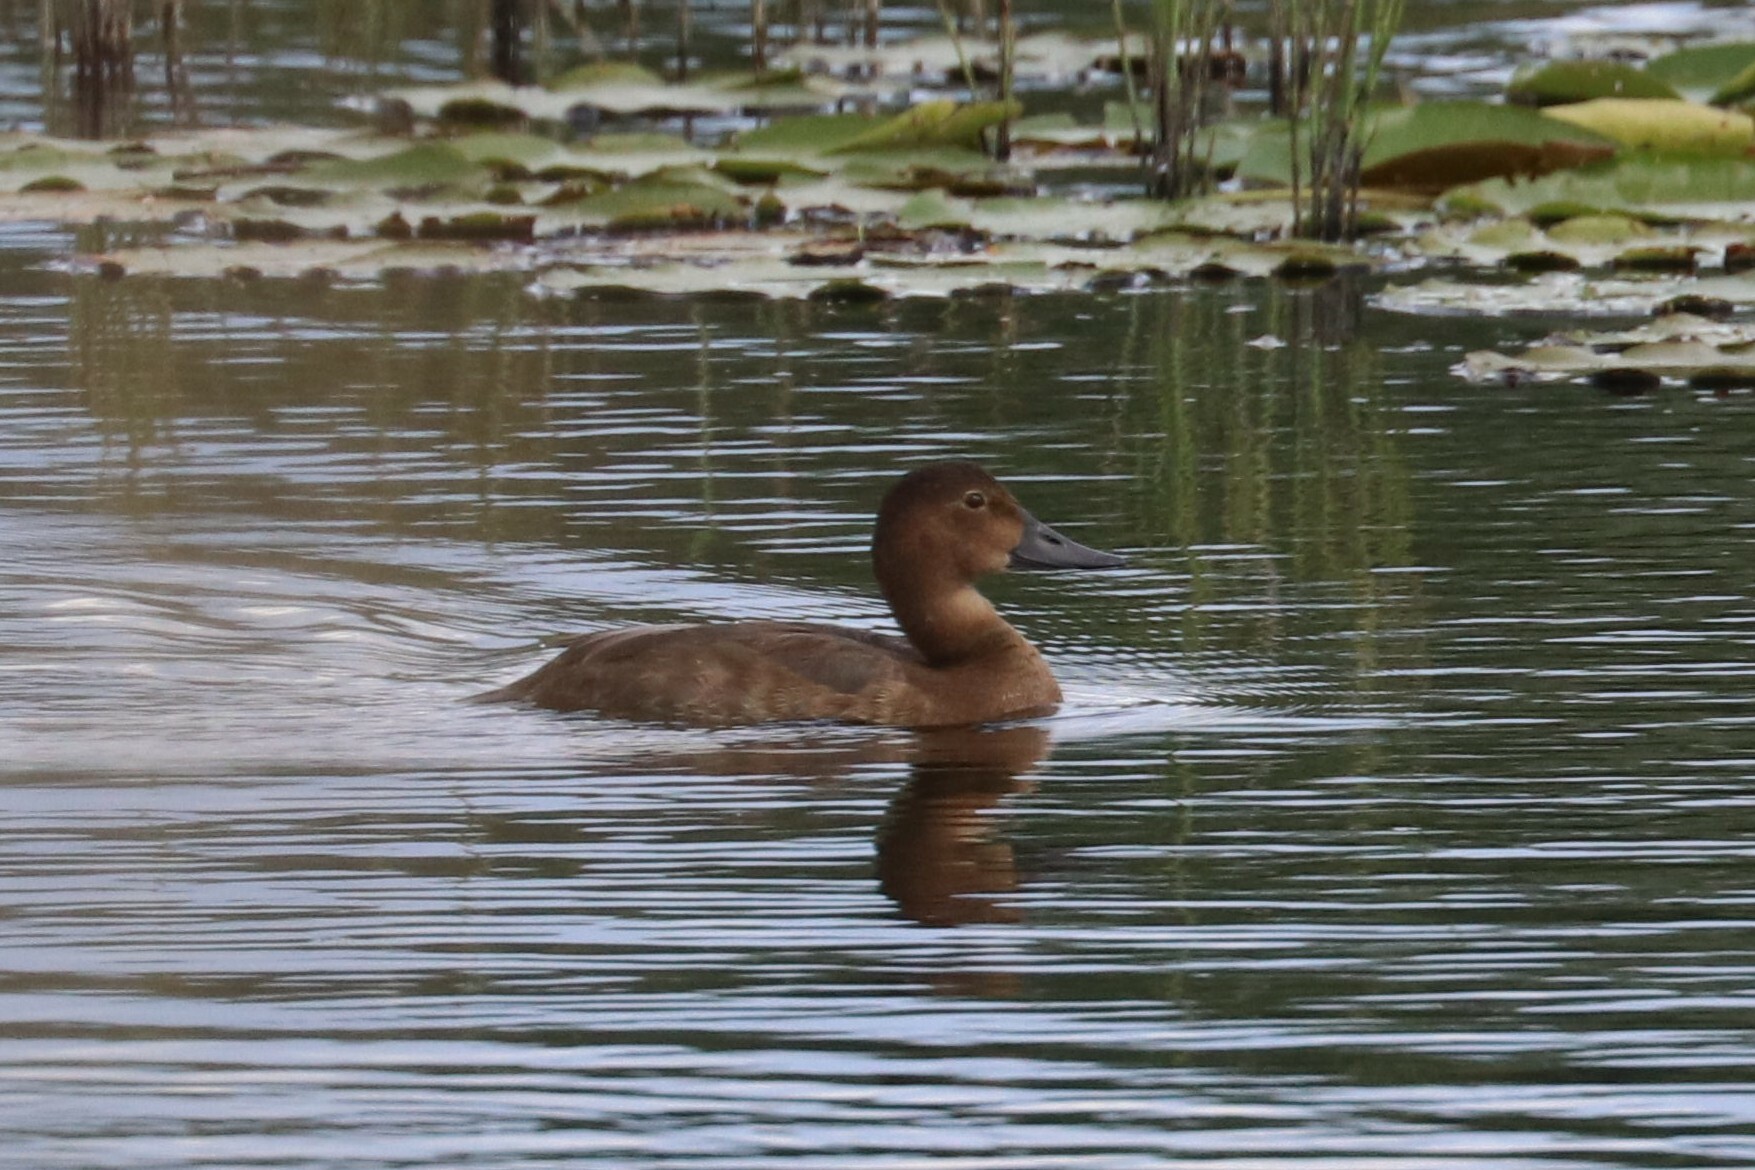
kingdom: Animalia
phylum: Chordata
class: Aves
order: Anseriformes
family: Anatidae
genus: Aythya
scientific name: Aythya ferina
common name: Common pochard
